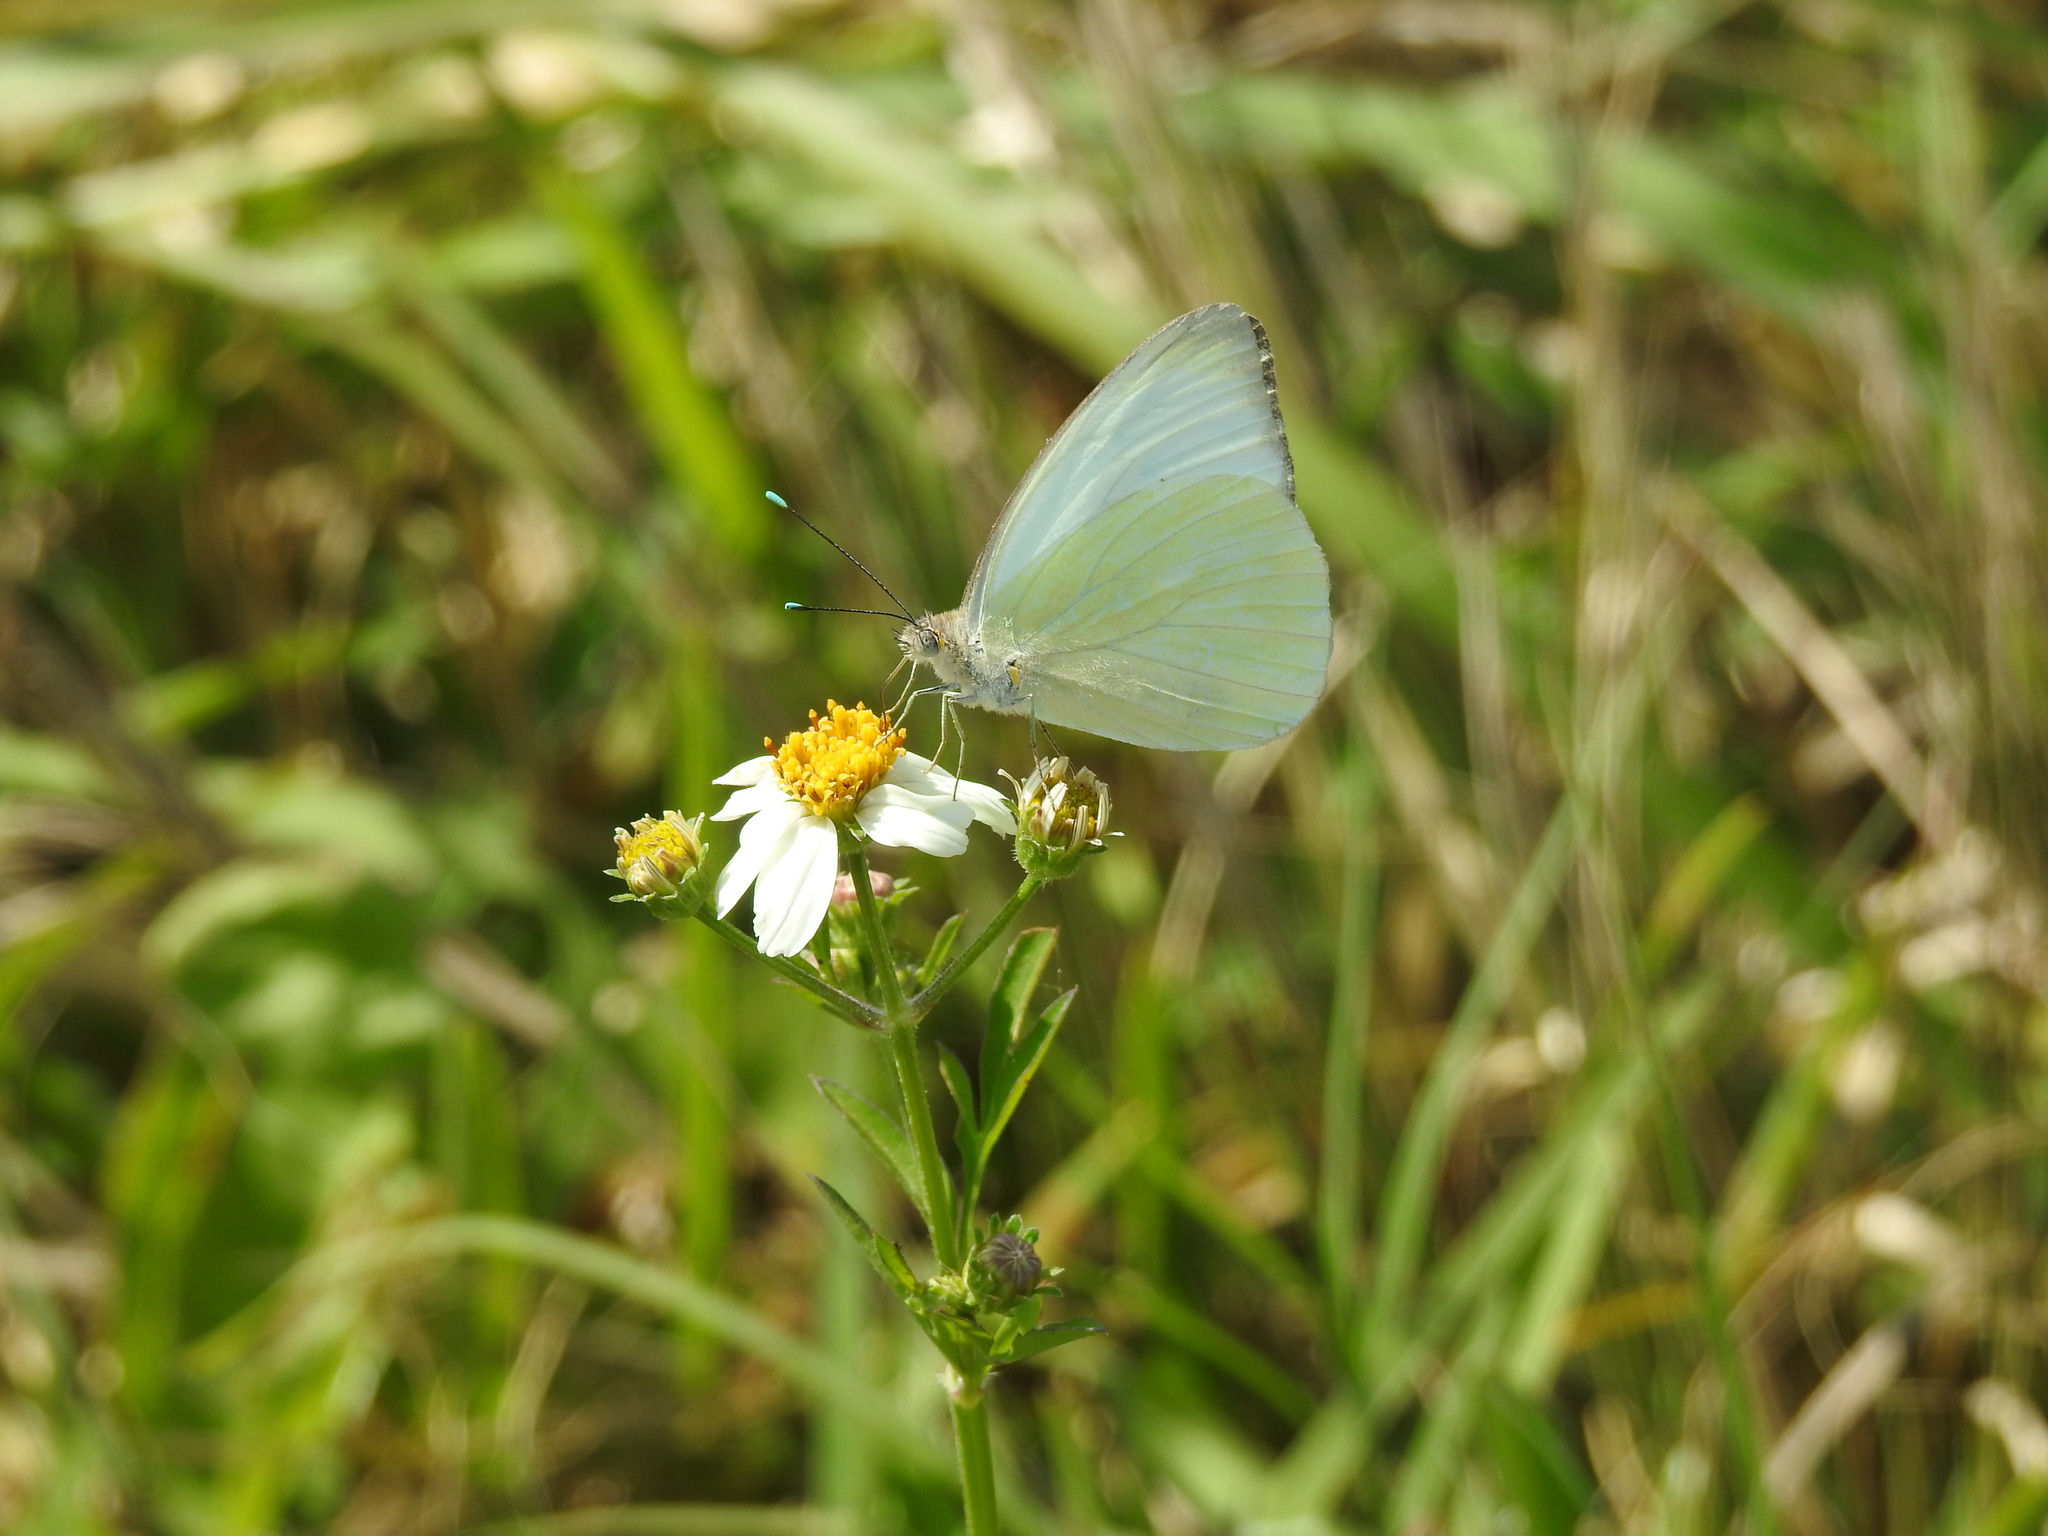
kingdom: Animalia
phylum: Arthropoda
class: Insecta
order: Lepidoptera
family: Pieridae
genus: Ascia
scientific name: Ascia monuste
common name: Great southern white
